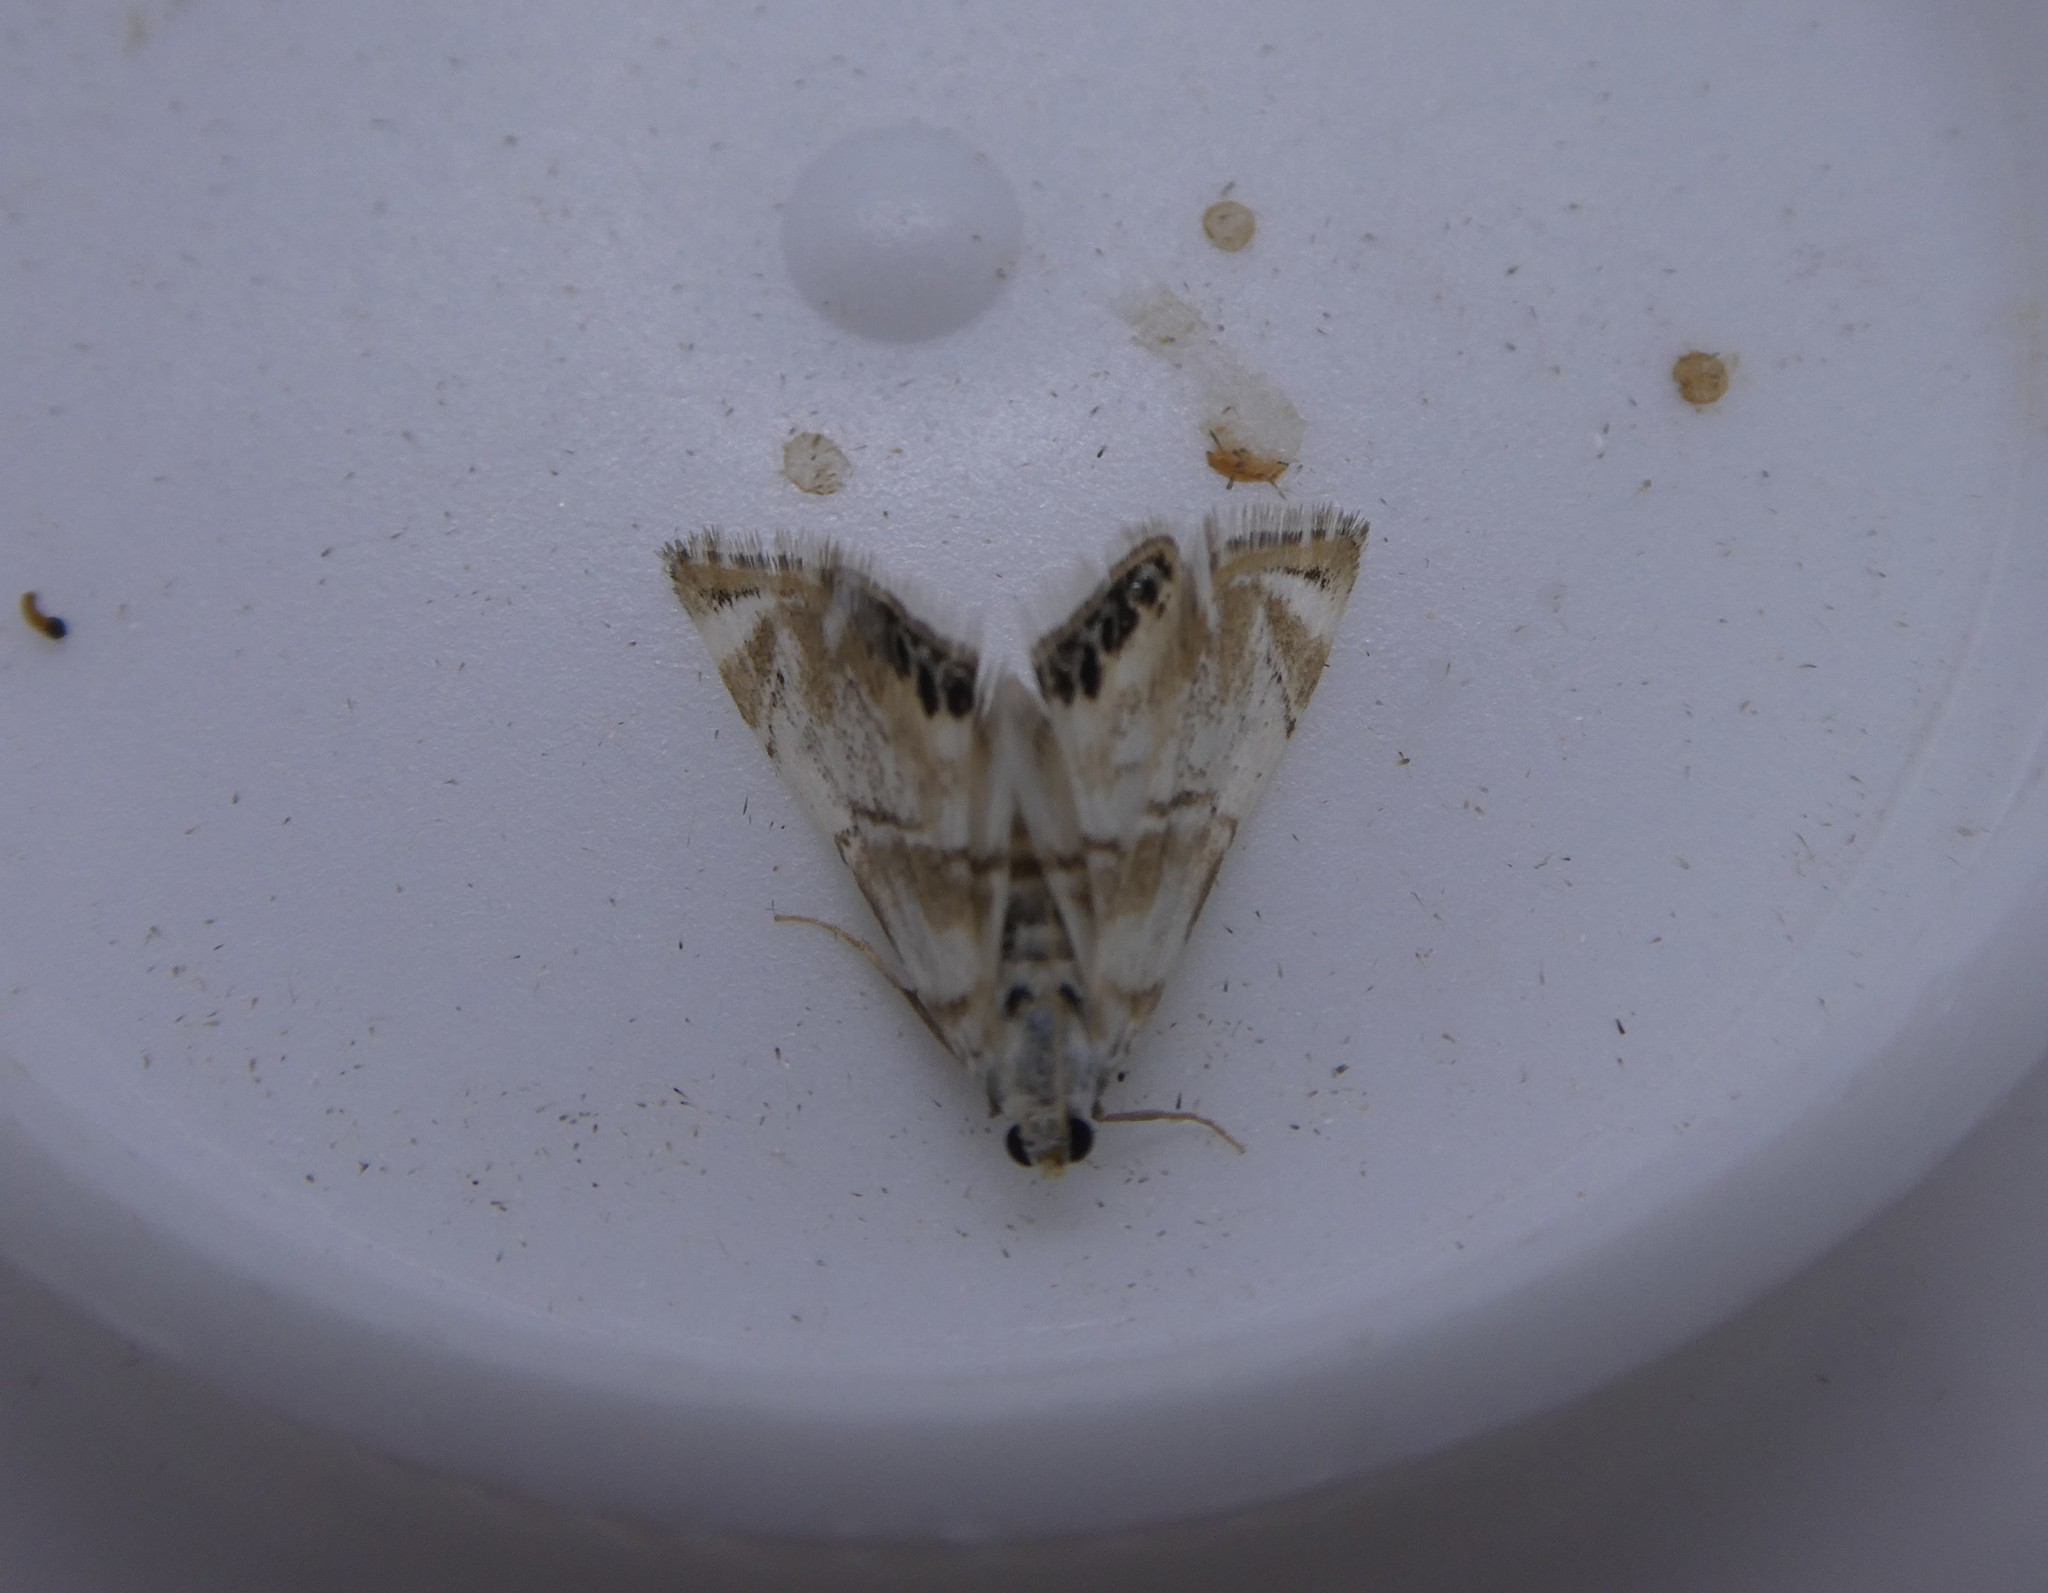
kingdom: Animalia
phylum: Arthropoda
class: Insecta
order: Lepidoptera
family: Crambidae
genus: Eoparargyractis
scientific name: Eoparargyractis plevie
